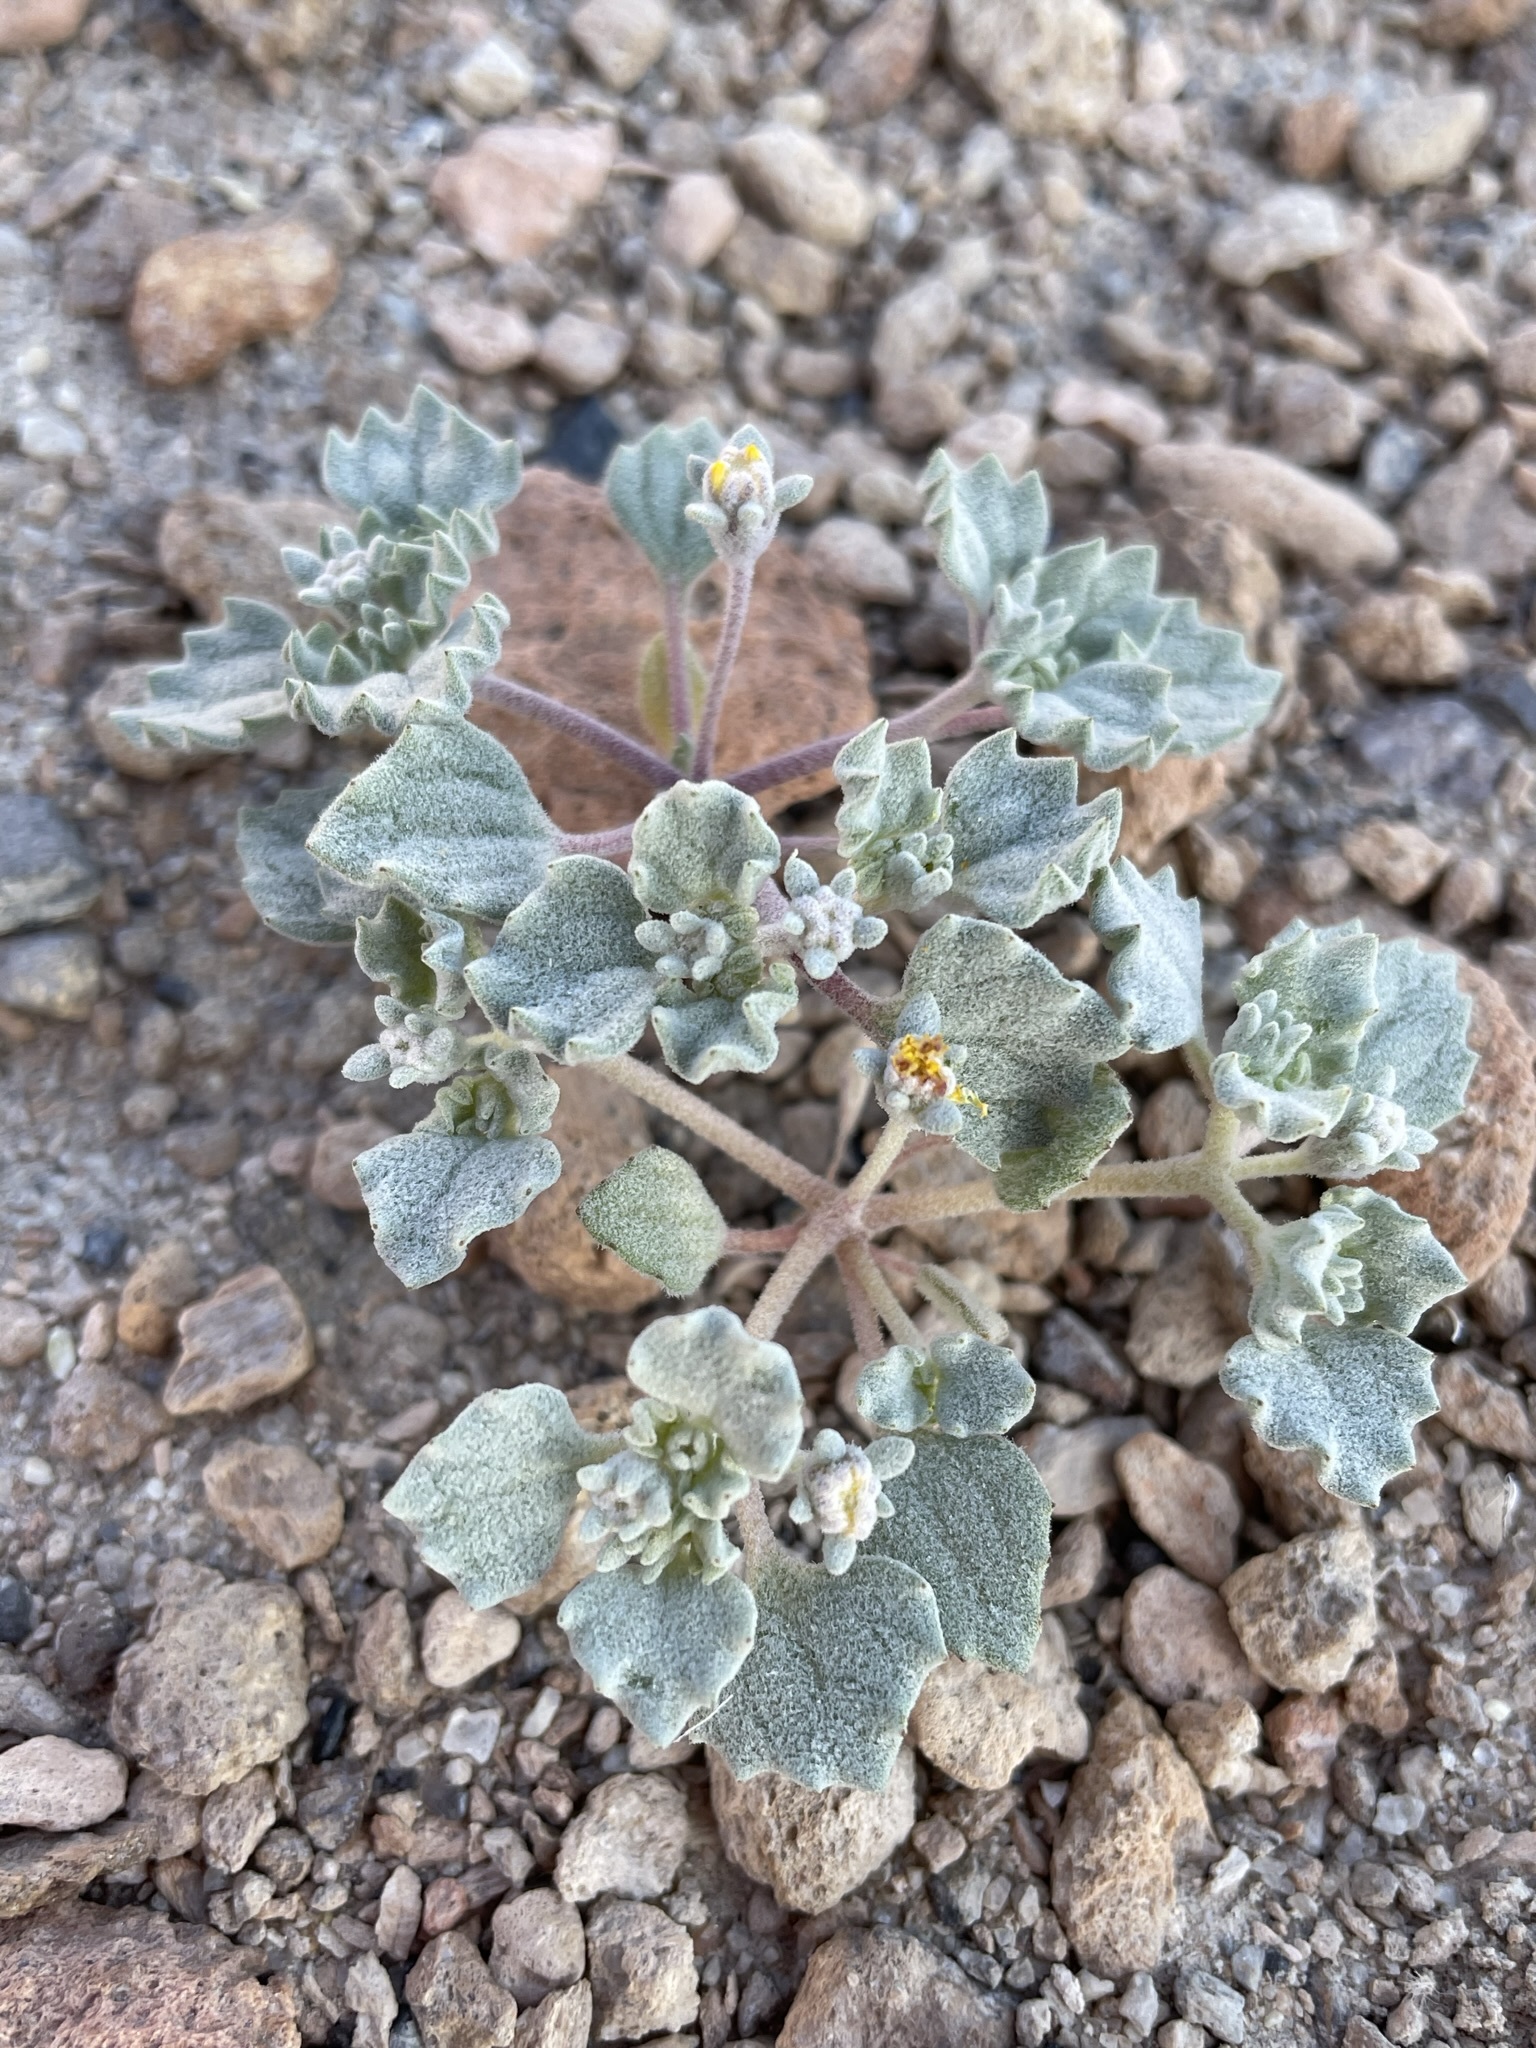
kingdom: Plantae
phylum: Tracheophyta
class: Magnoliopsida
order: Asterales
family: Asteraceae
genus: Psathyrotes
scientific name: Psathyrotes annua
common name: Mealy rosettes
